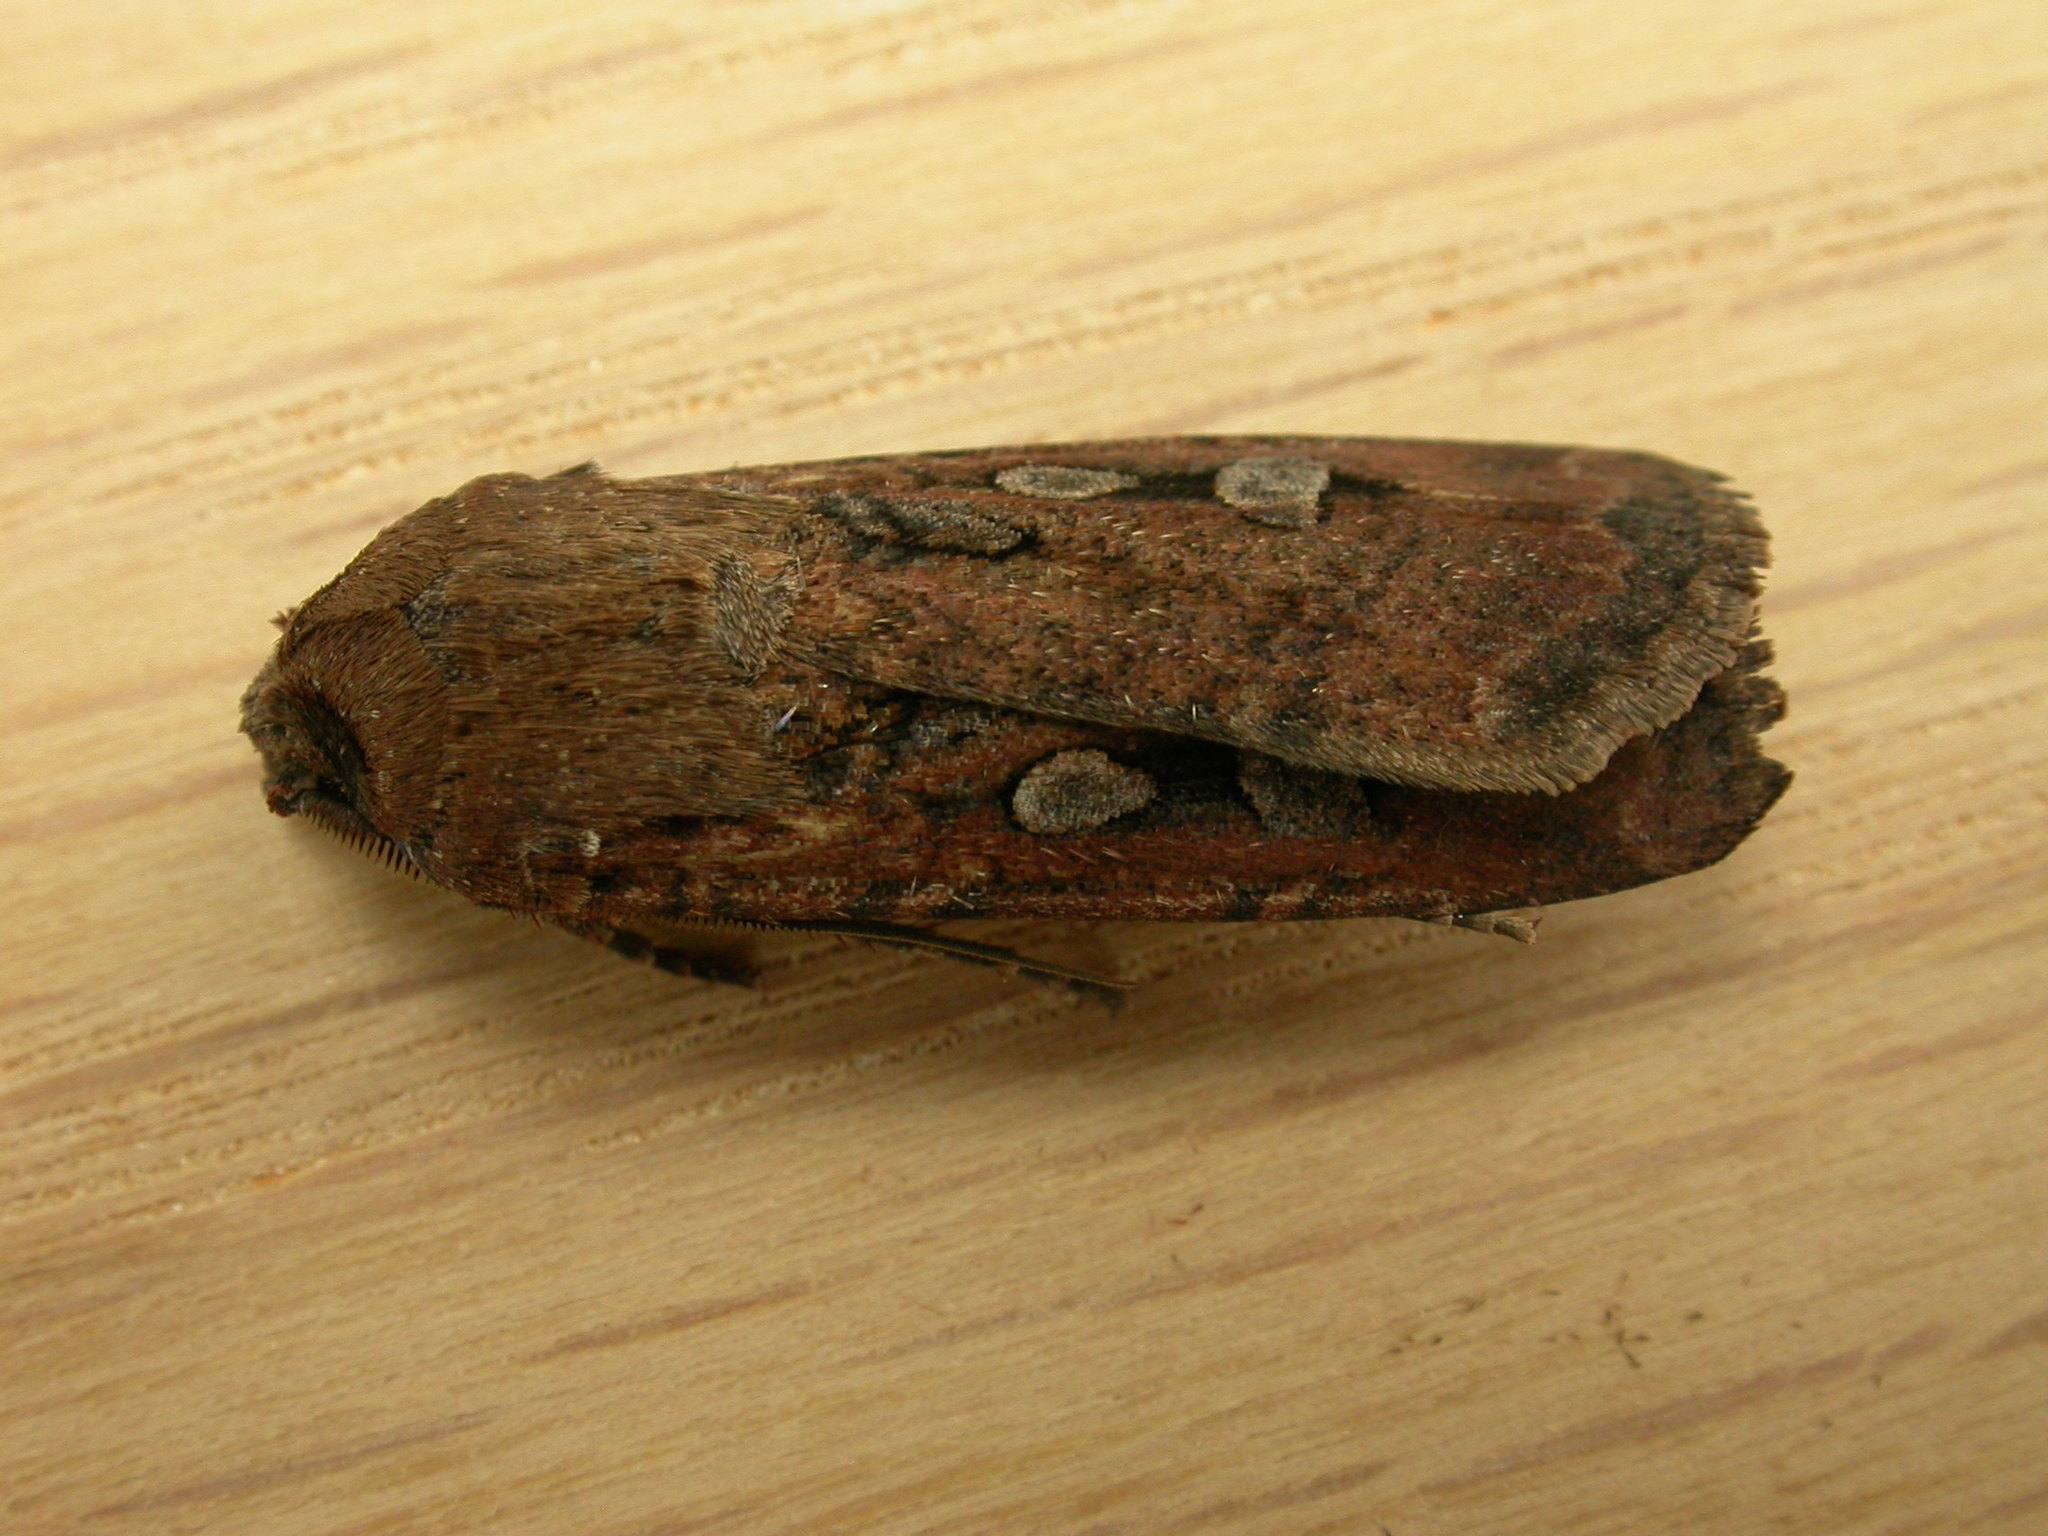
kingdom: Animalia
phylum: Arthropoda
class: Insecta
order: Lepidoptera
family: Noctuidae
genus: Agrotis
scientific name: Agrotis infusa
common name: Bogong moth
